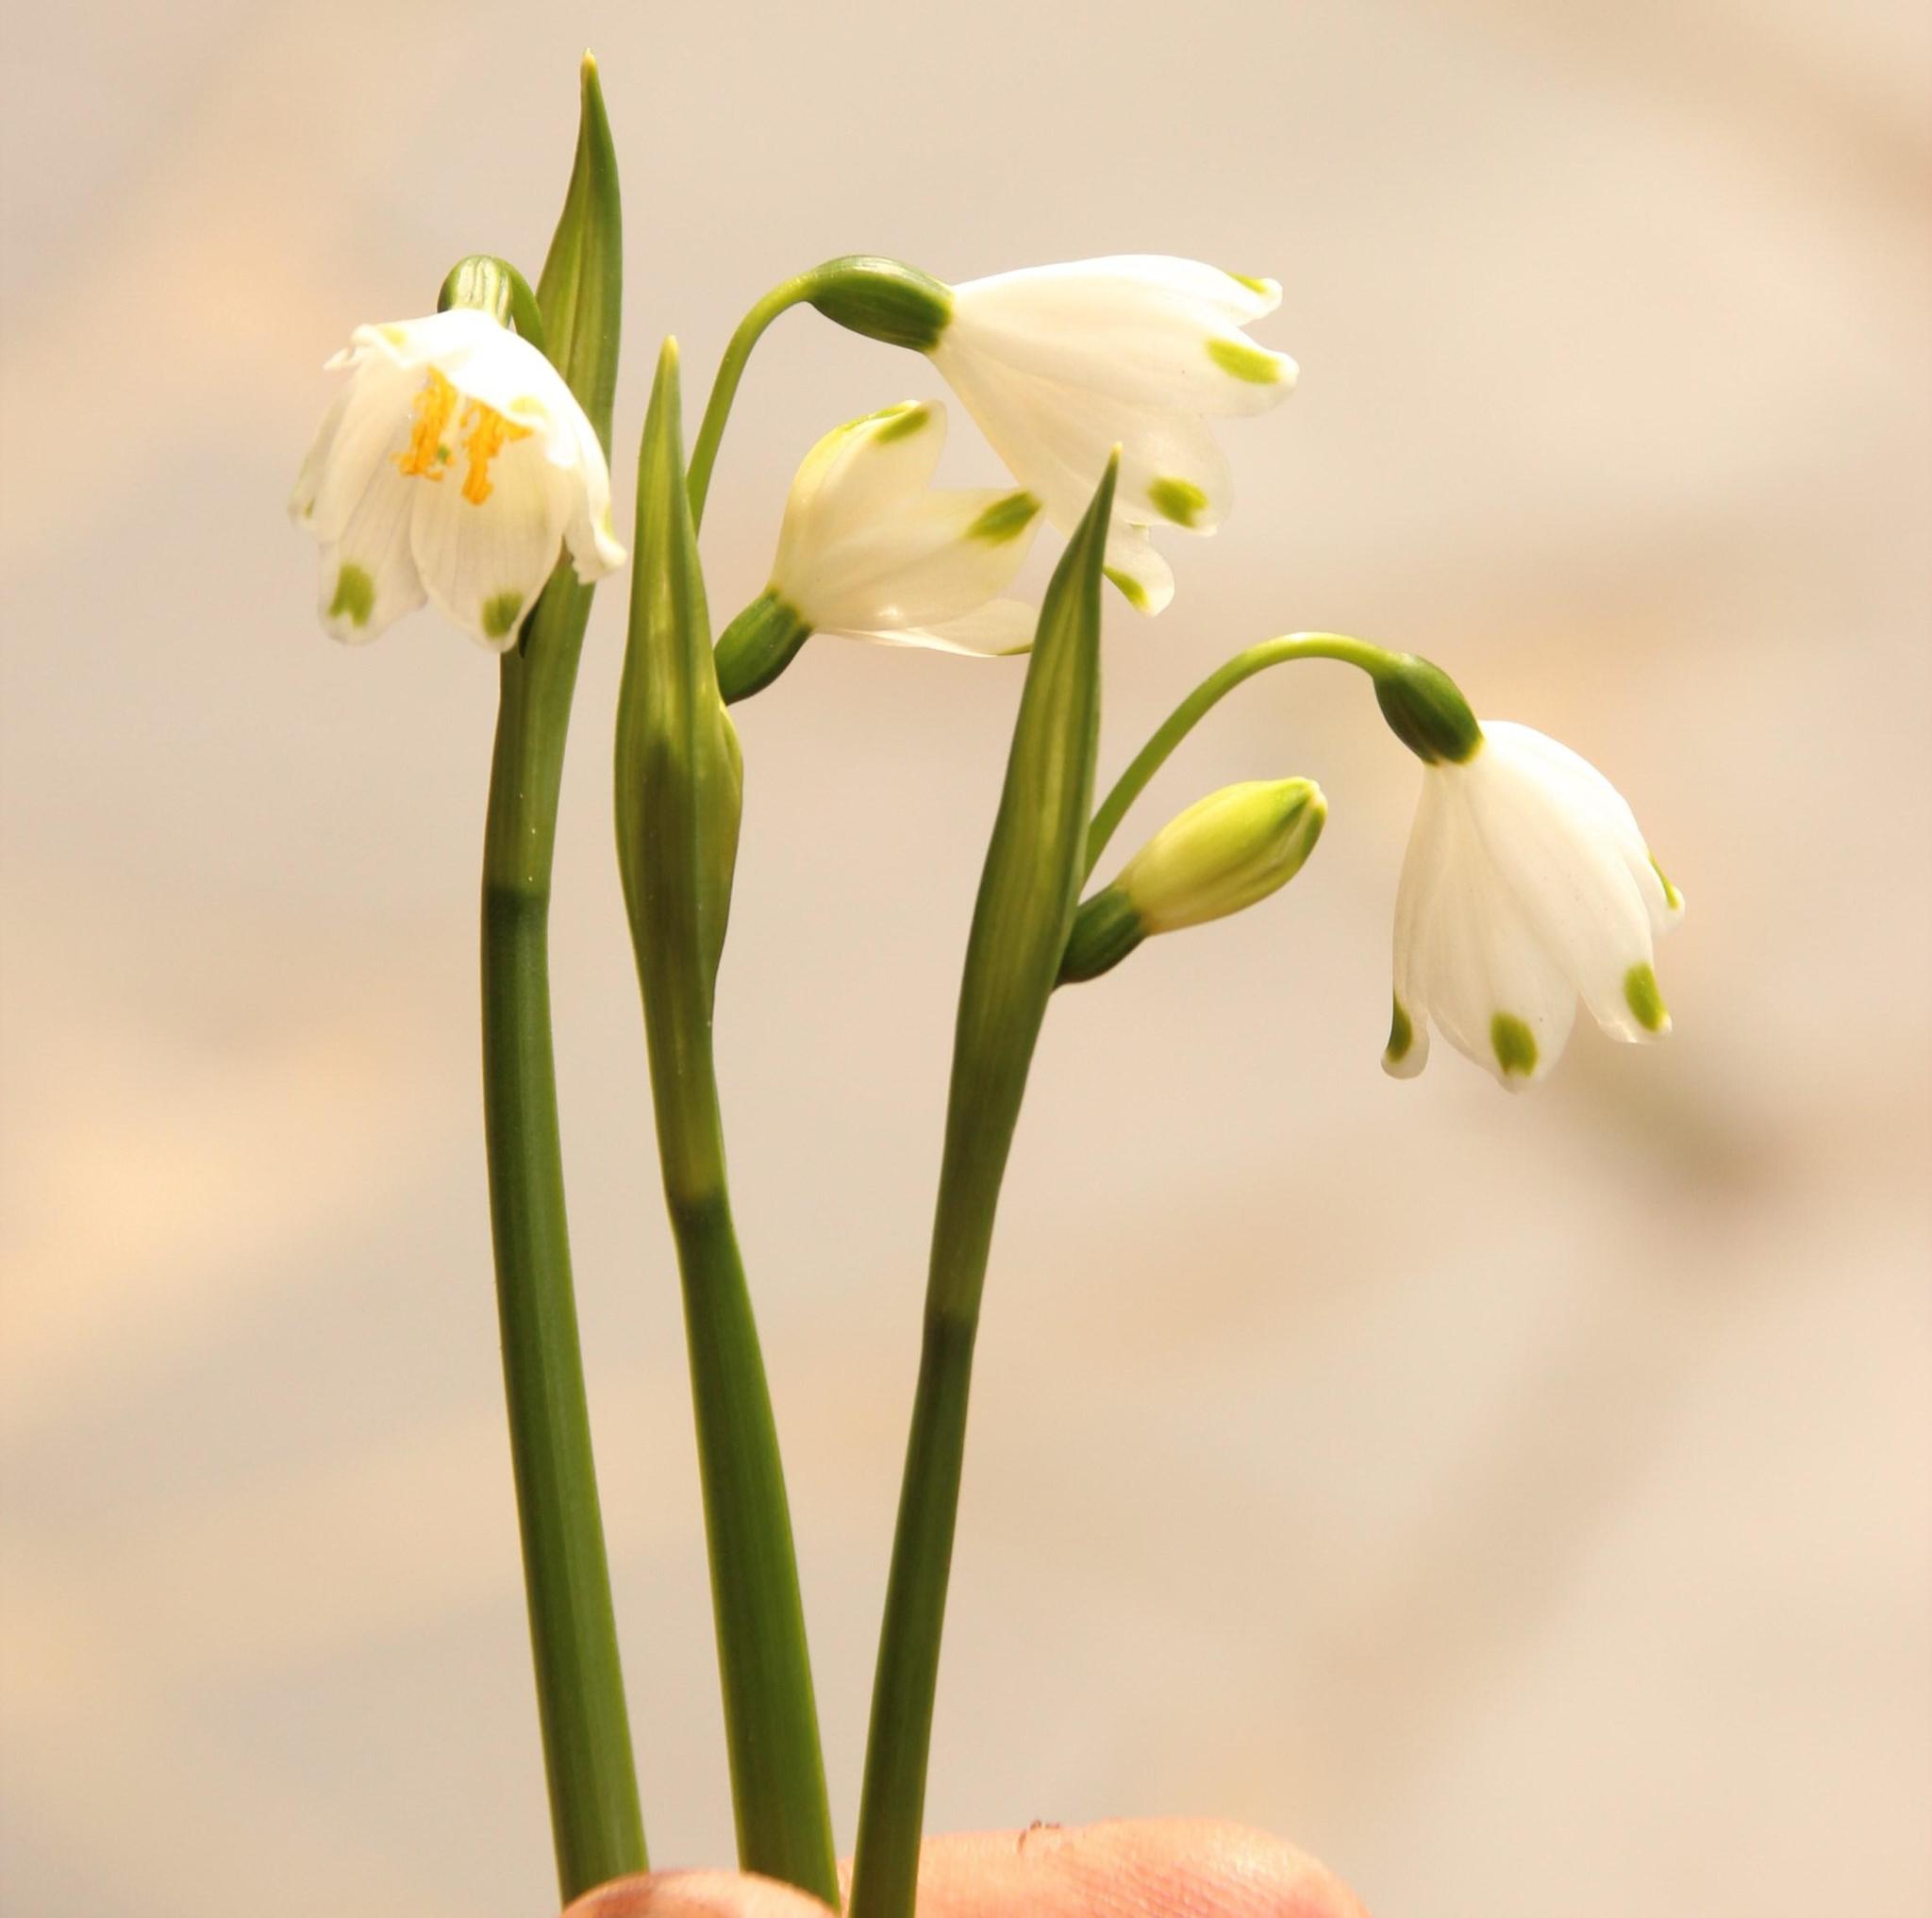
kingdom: Plantae
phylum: Tracheophyta
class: Liliopsida
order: Asparagales
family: Amaryllidaceae
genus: Leucojum
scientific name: Leucojum aestivum
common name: Summer snowflake
